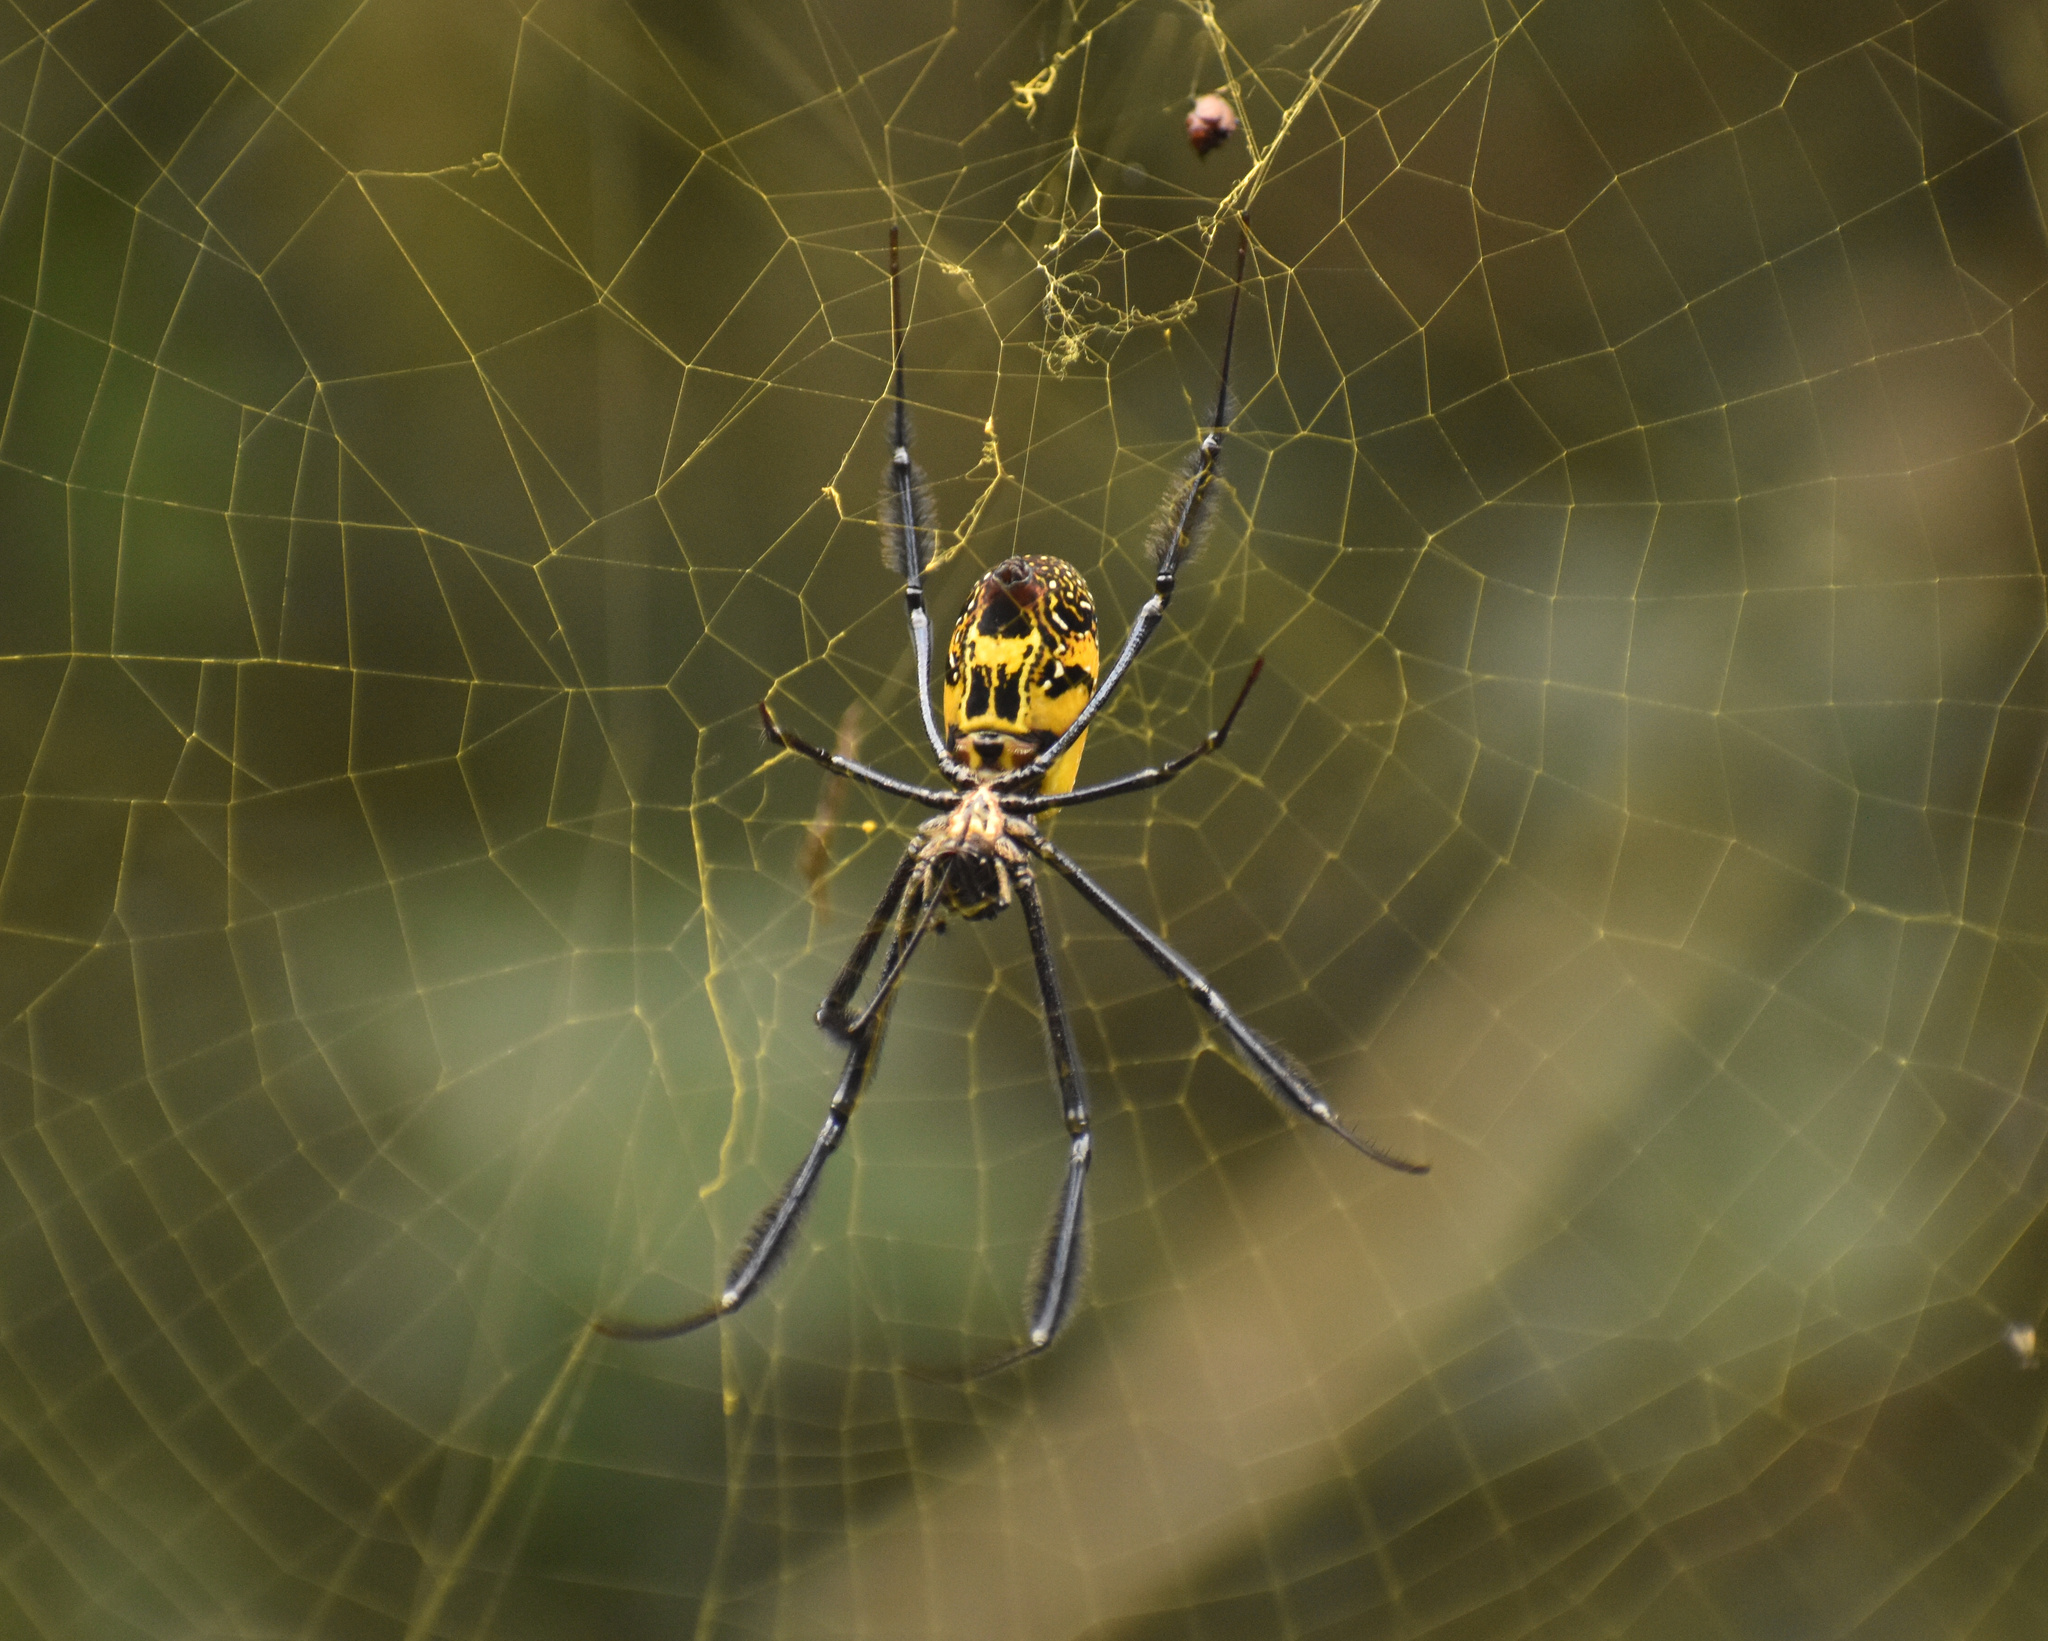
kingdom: Animalia
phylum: Arthropoda
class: Arachnida
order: Araneae
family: Araneidae
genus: Trichonephila
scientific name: Trichonephila fenestrata
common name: Hairy golden orb weaver
